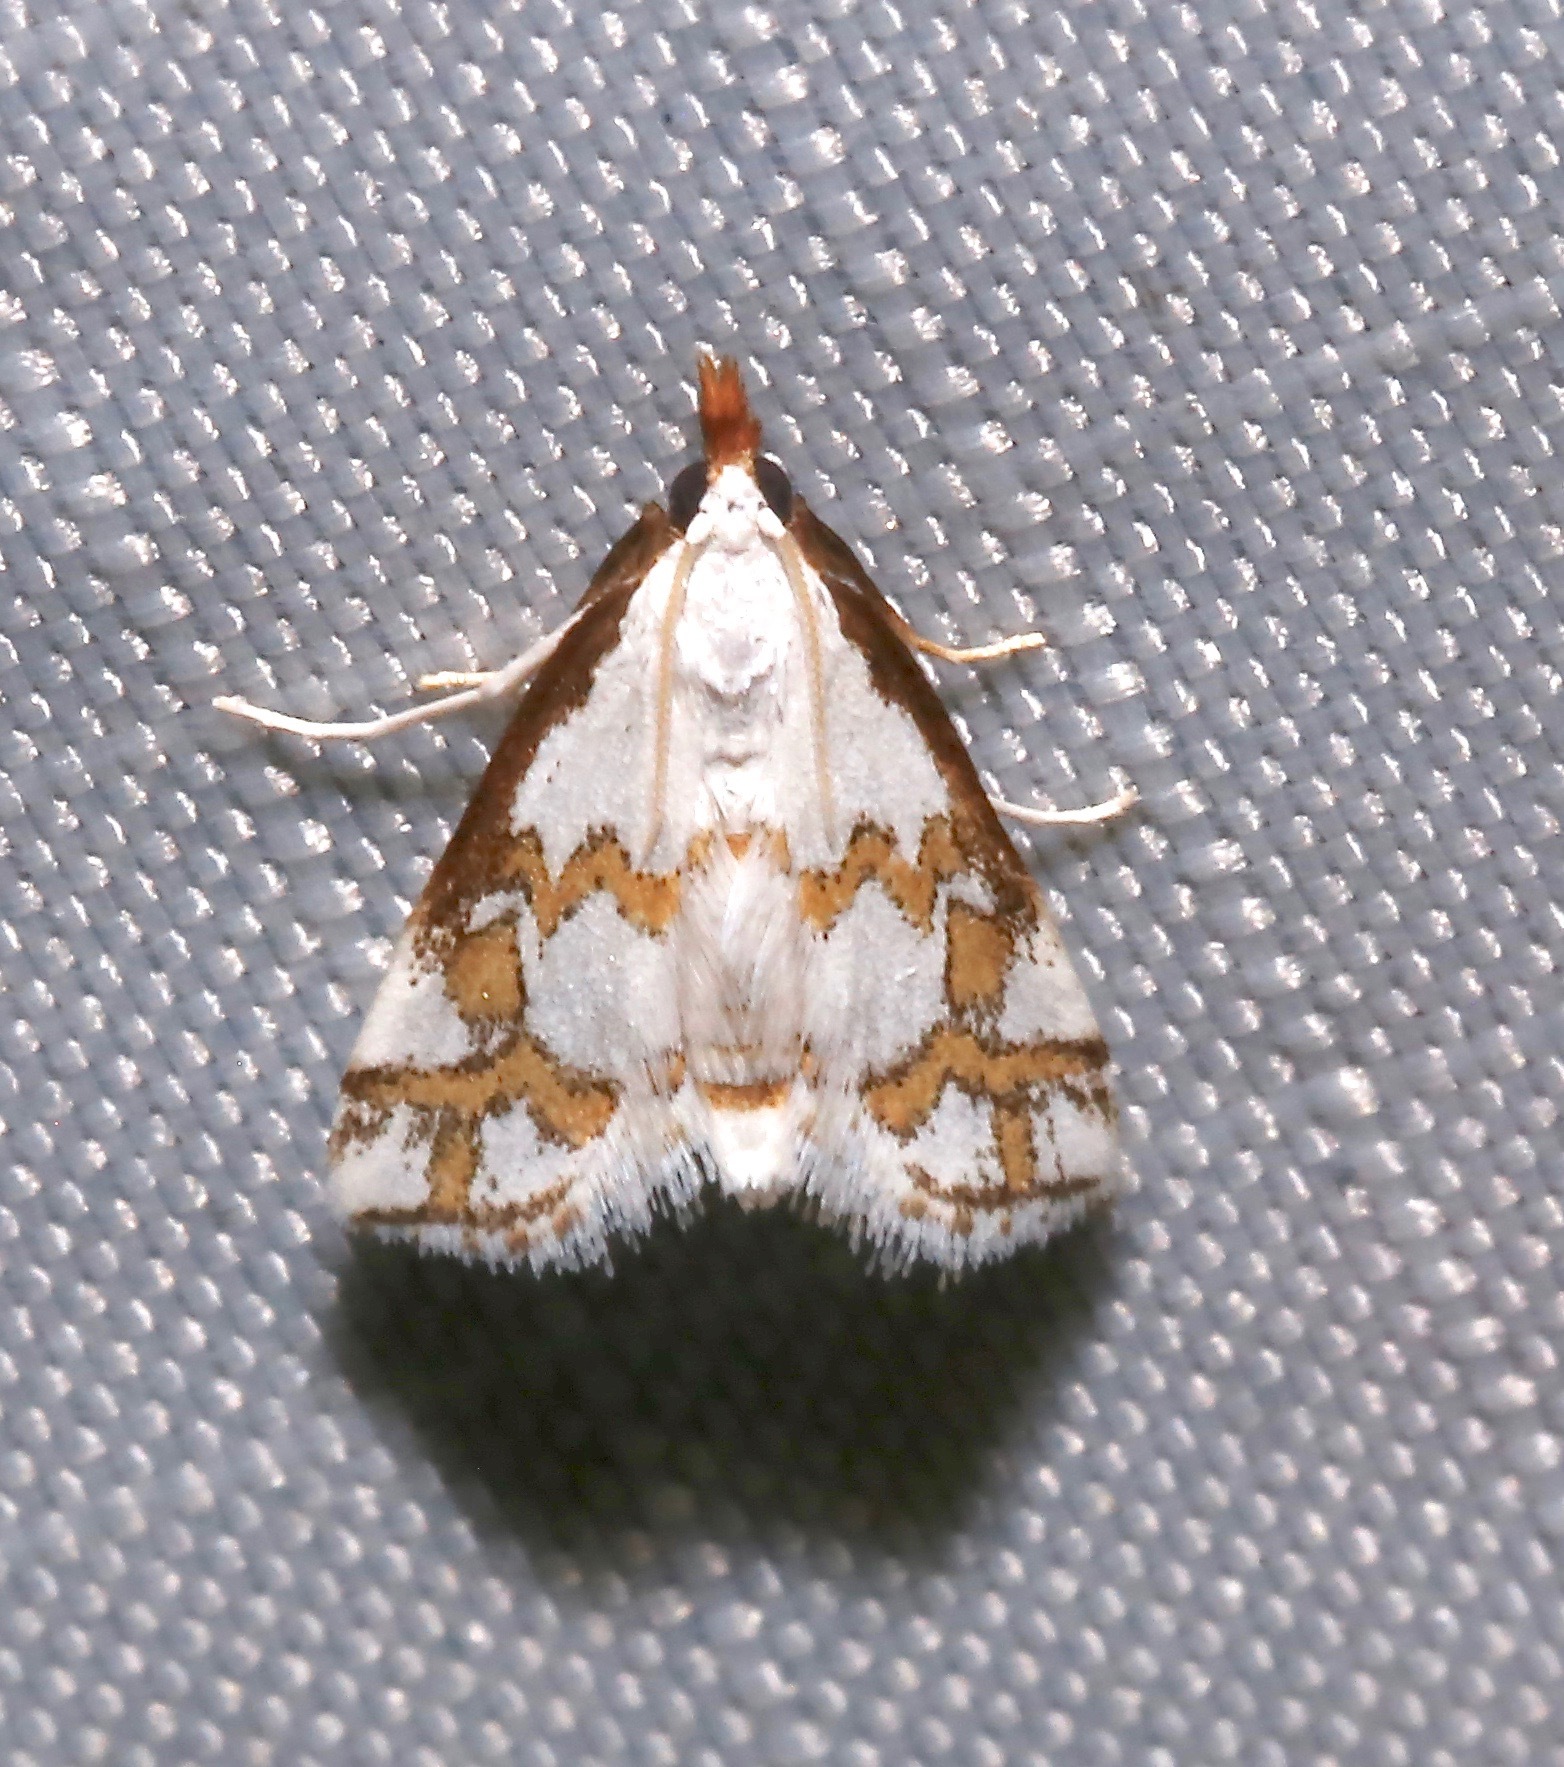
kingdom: Animalia
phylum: Arthropoda
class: Insecta
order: Lepidoptera
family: Crambidae
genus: Leptosteges
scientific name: Leptosteges
